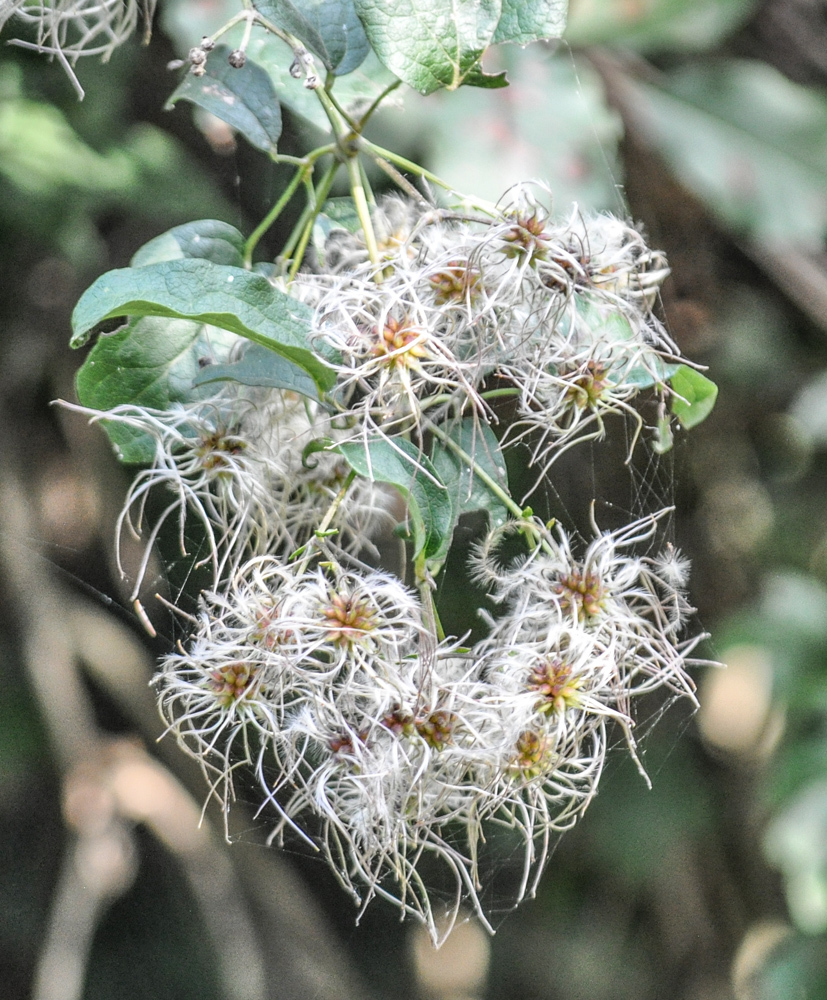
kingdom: Plantae
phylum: Tracheophyta
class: Magnoliopsida
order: Ranunculales
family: Ranunculaceae
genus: Clematis
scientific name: Clematis vitalba
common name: Evergreen clematis
